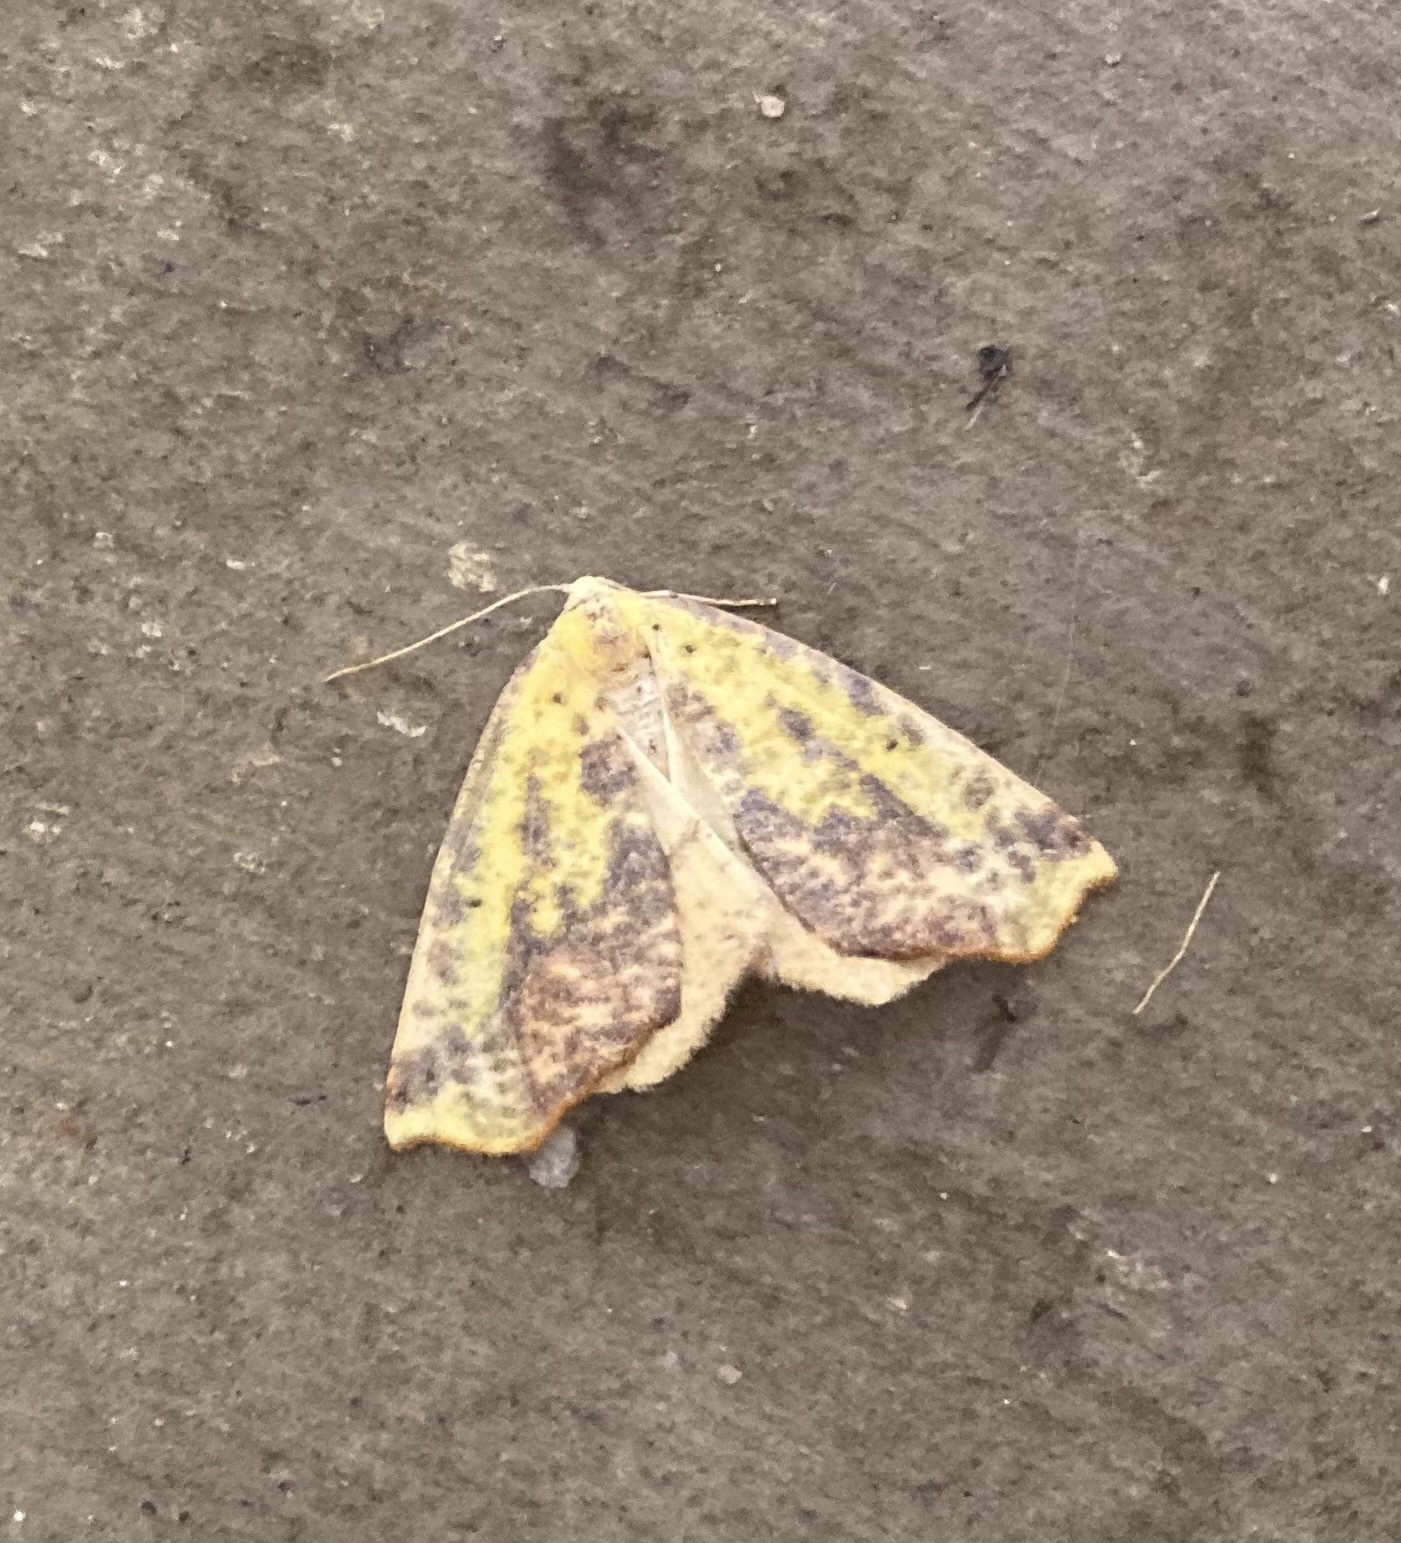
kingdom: Animalia
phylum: Arthropoda
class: Insecta
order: Lepidoptera
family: Geometridae
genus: Sicya
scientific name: Sicya macularia
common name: Sharp-lined yellow
